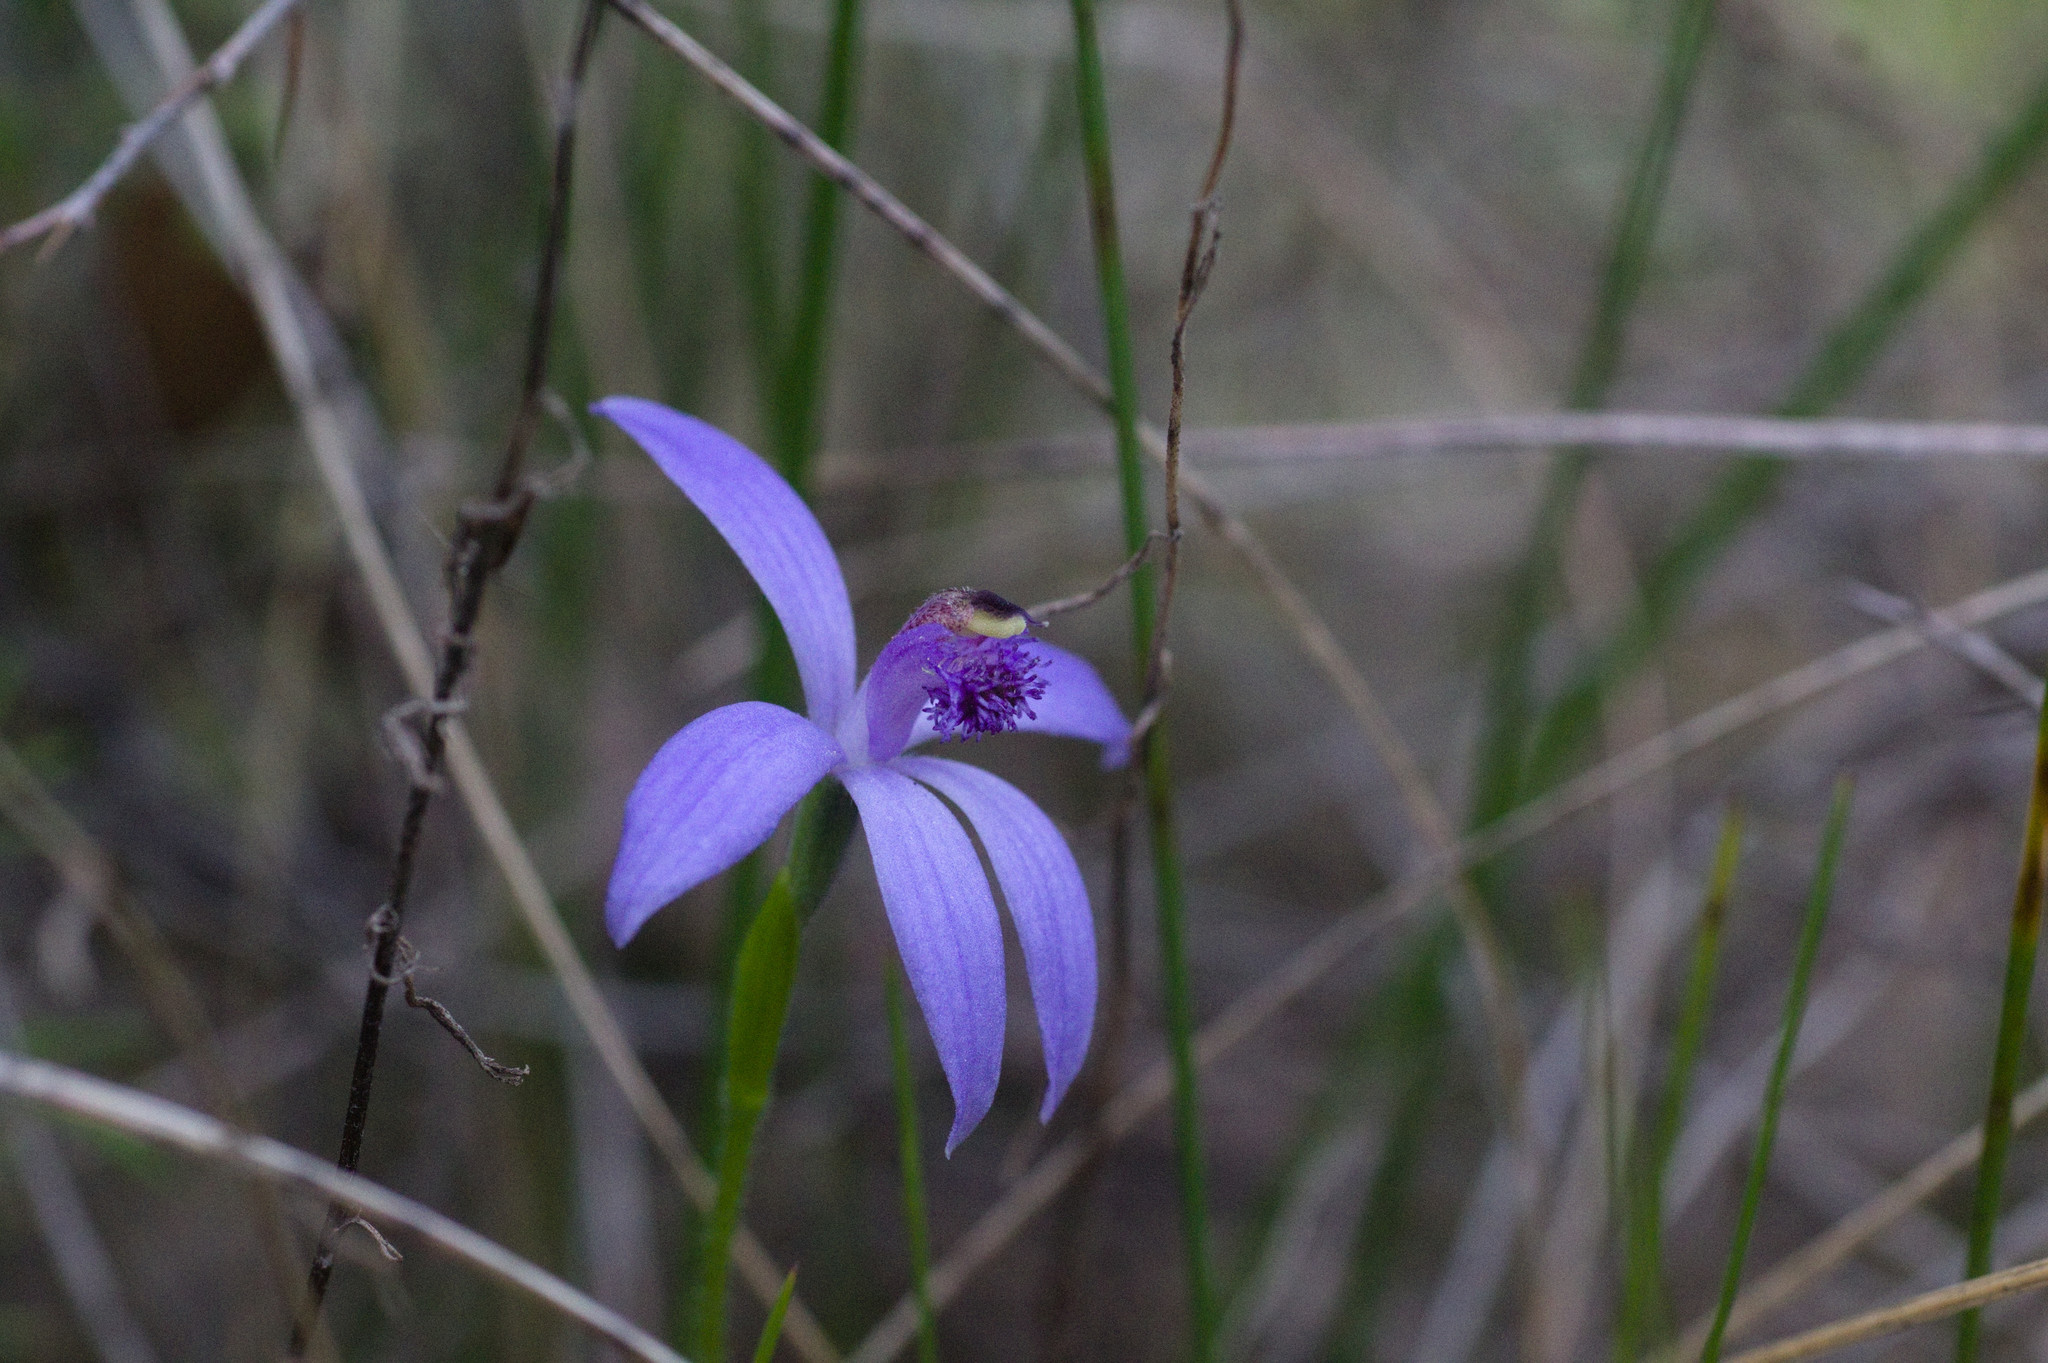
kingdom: Plantae
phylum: Tracheophyta
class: Liliopsida
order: Asparagales
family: Orchidaceae
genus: Pheladenia
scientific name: Pheladenia deformis
